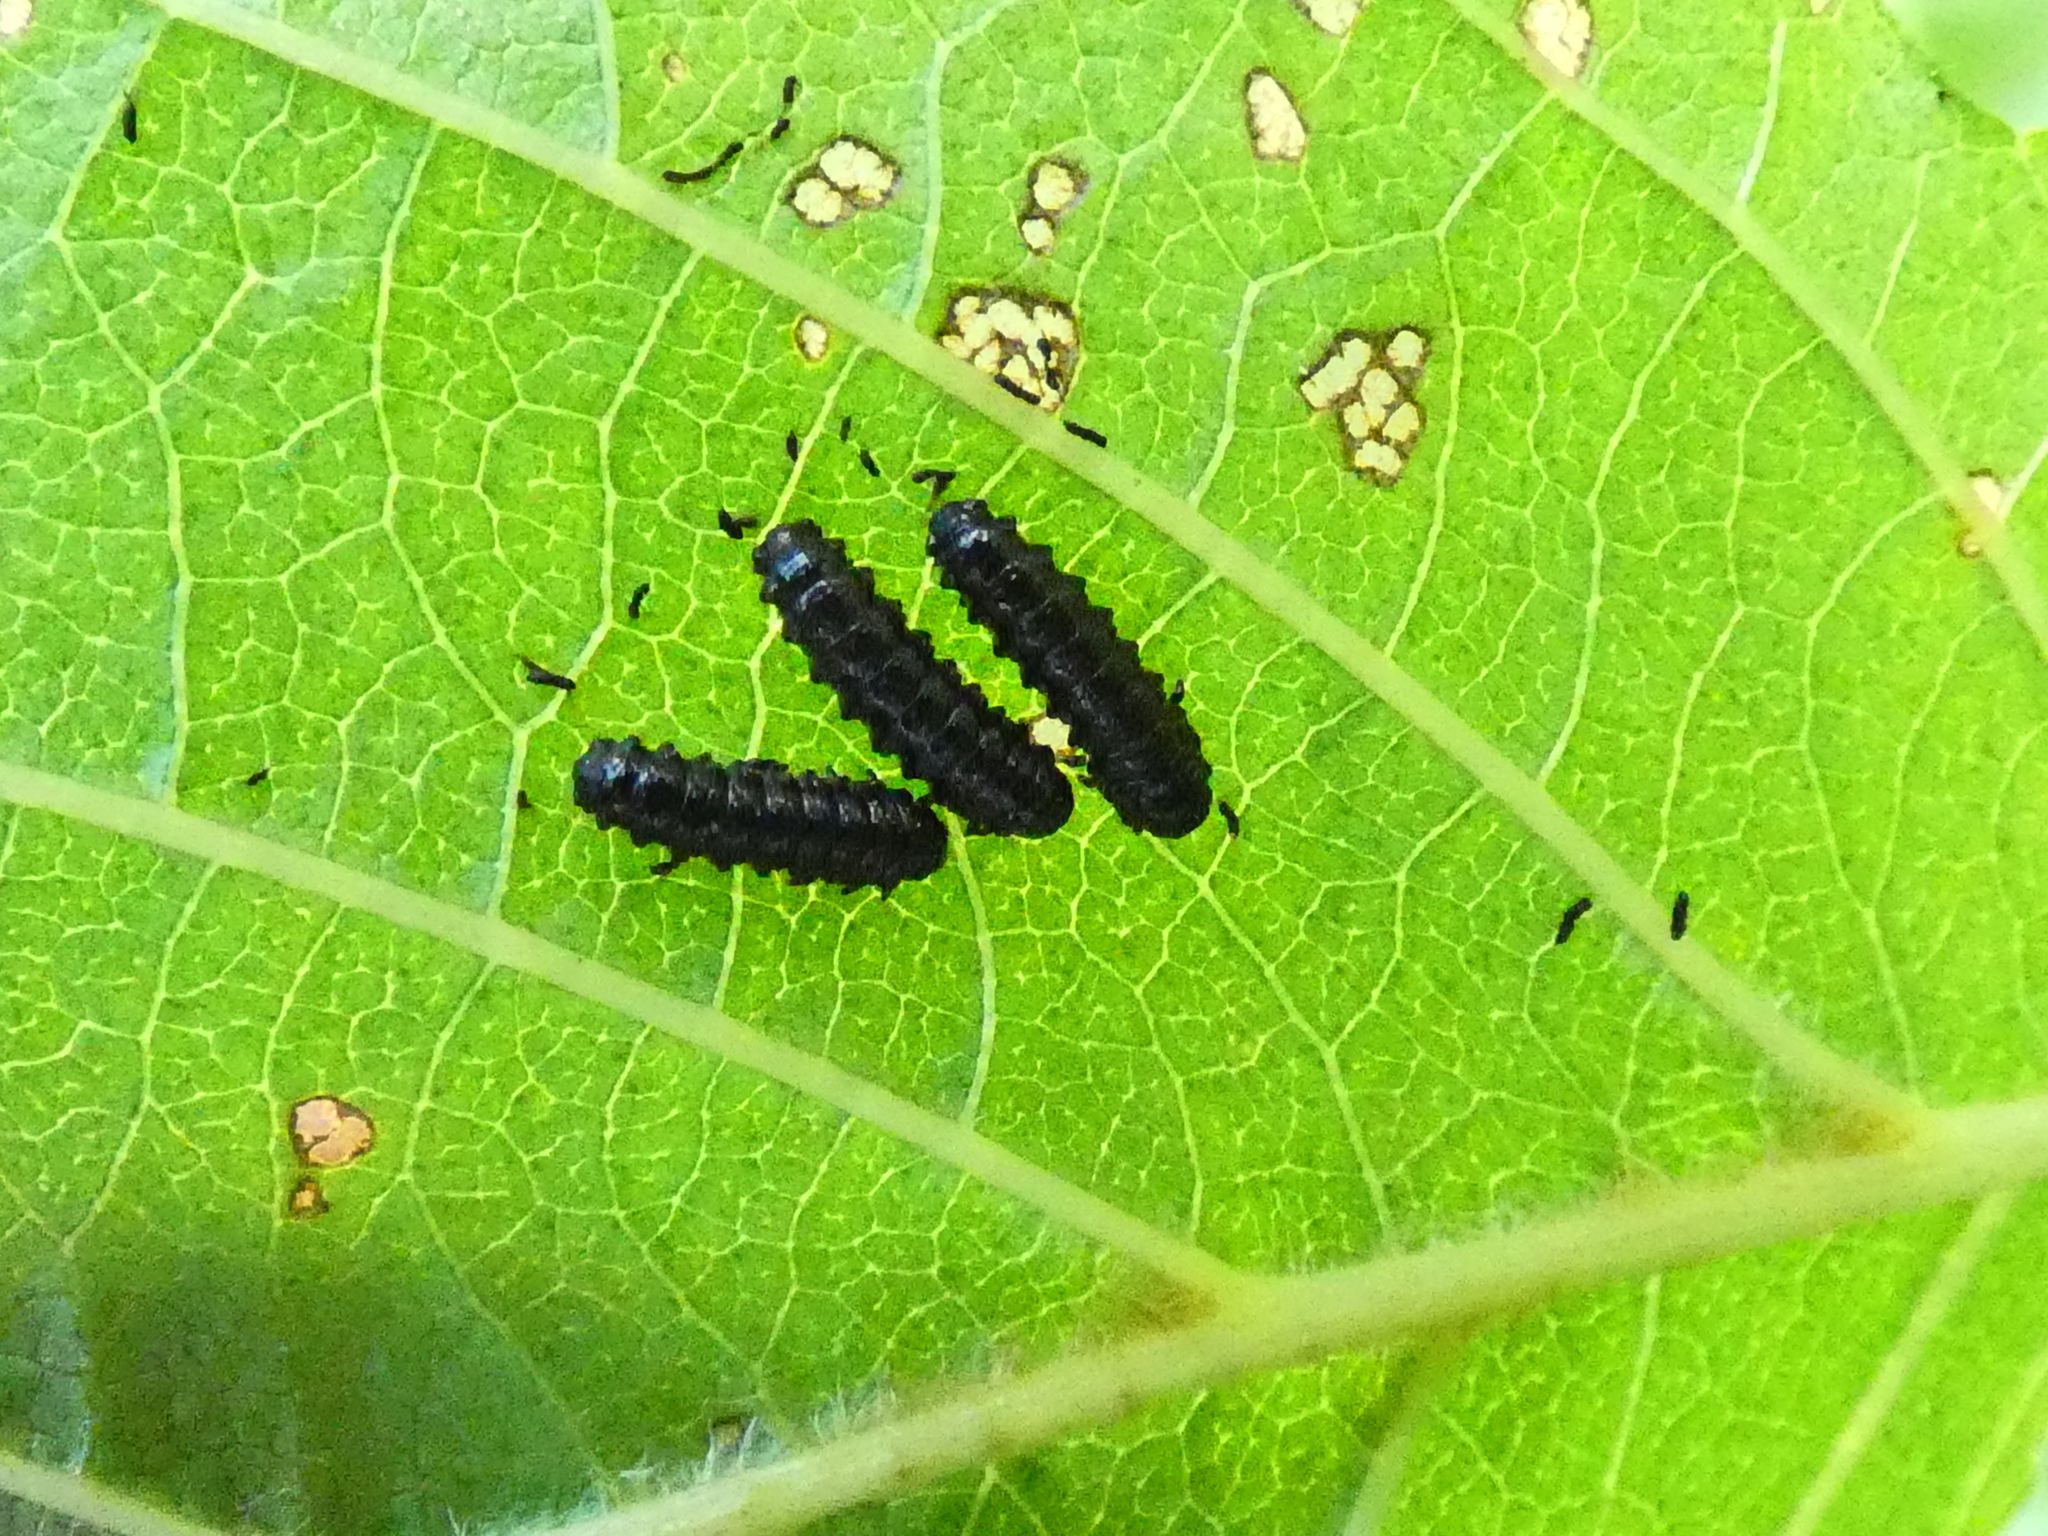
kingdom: Animalia
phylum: Arthropoda
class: Insecta
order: Coleoptera
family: Chrysomelidae
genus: Agelastica
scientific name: Agelastica alni
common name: Alder leaf beetle
